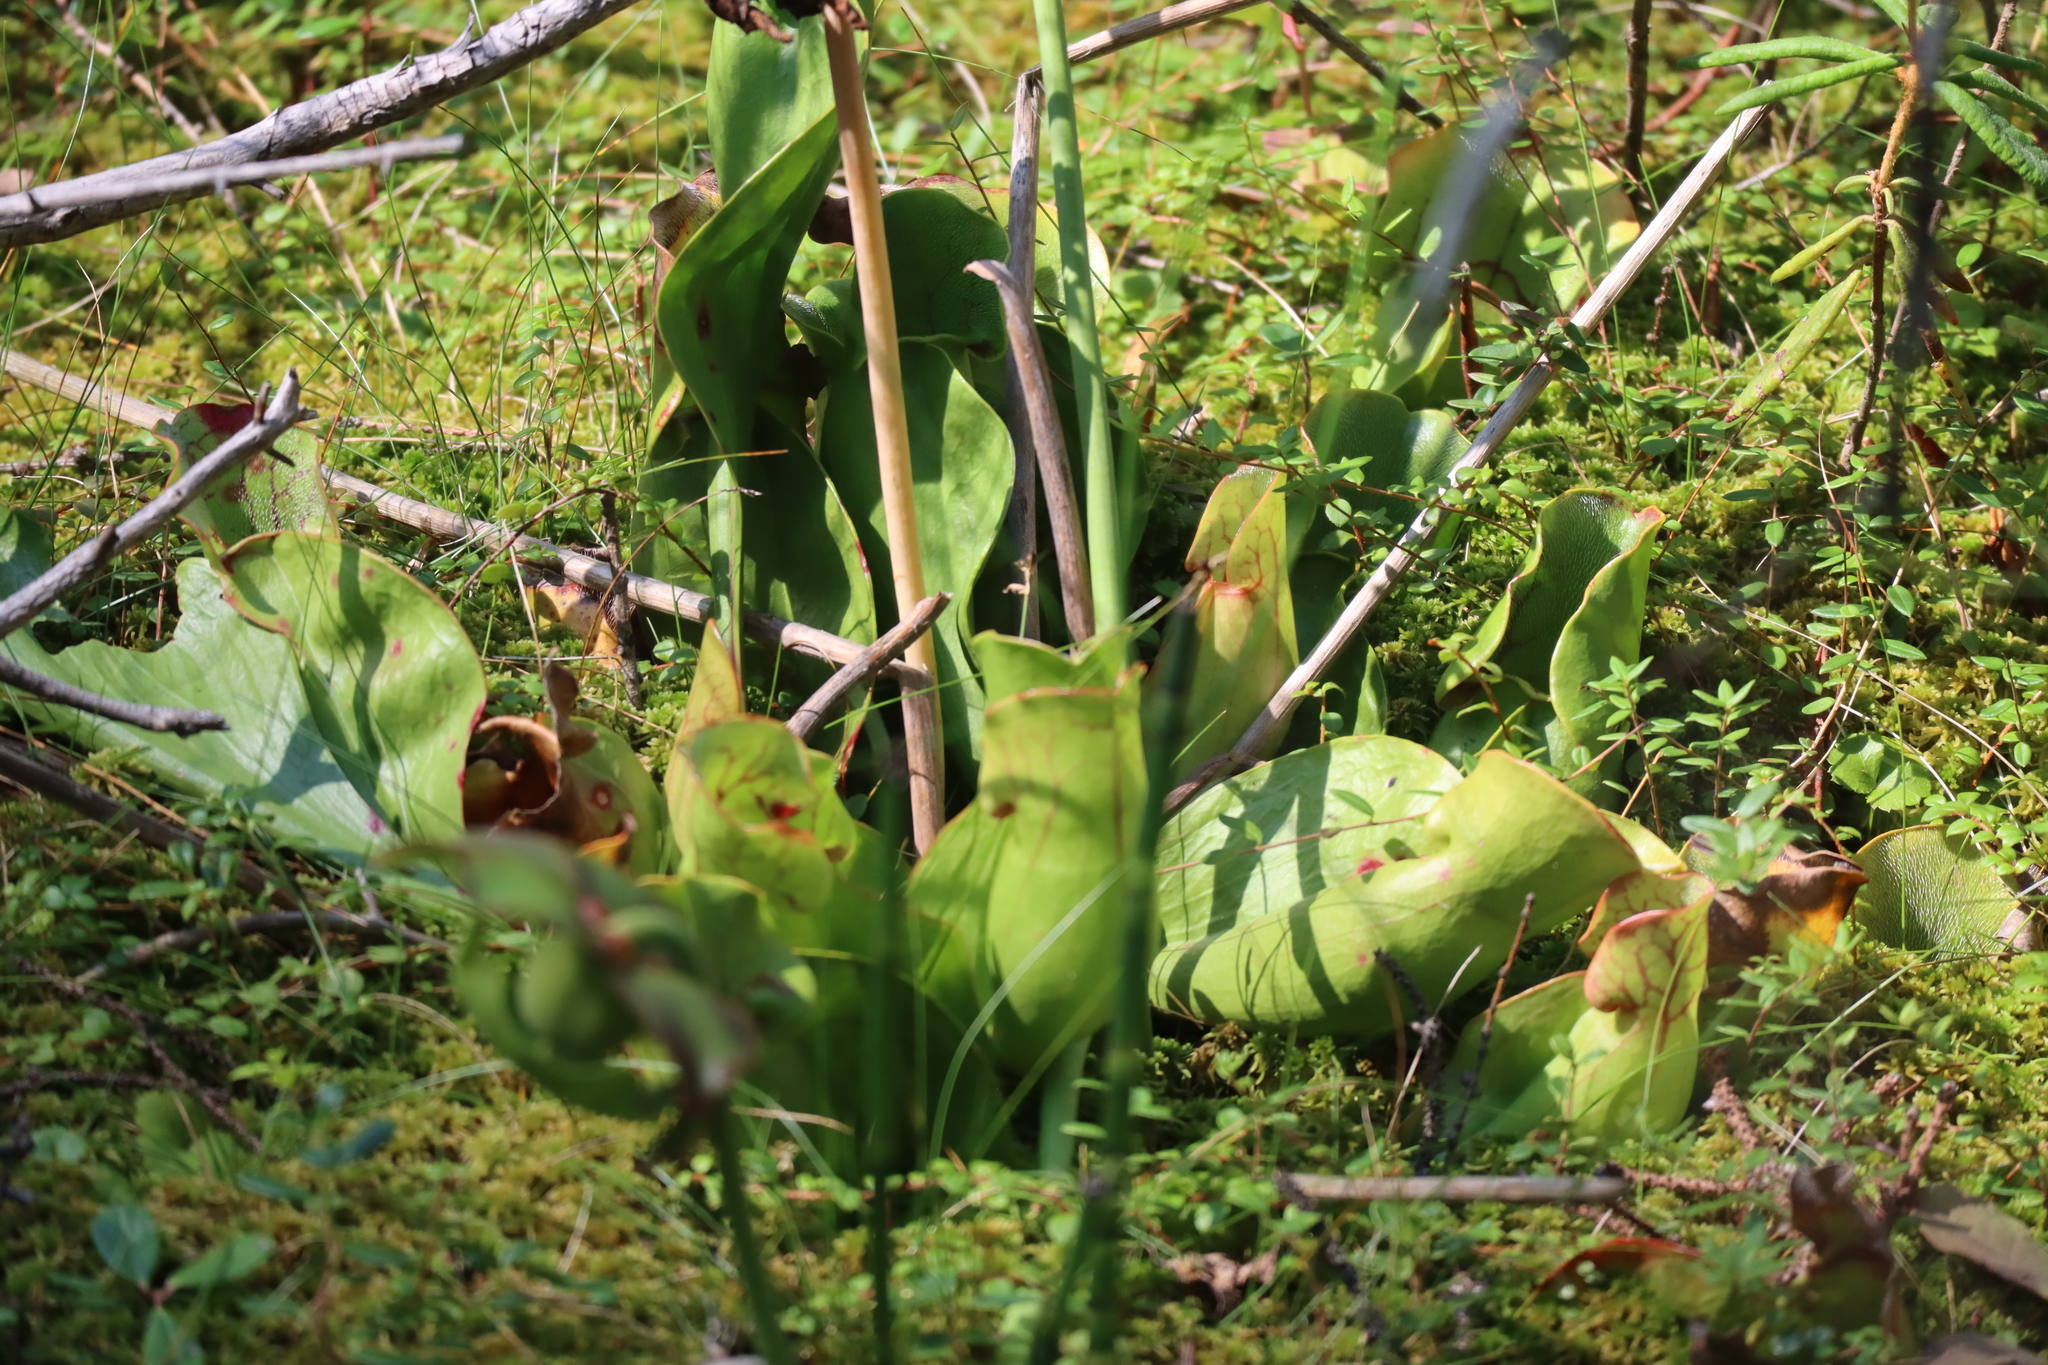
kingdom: Plantae
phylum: Tracheophyta
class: Magnoliopsida
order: Ericales
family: Sarraceniaceae
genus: Sarracenia
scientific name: Sarracenia purpurea
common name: Pitcherplant
